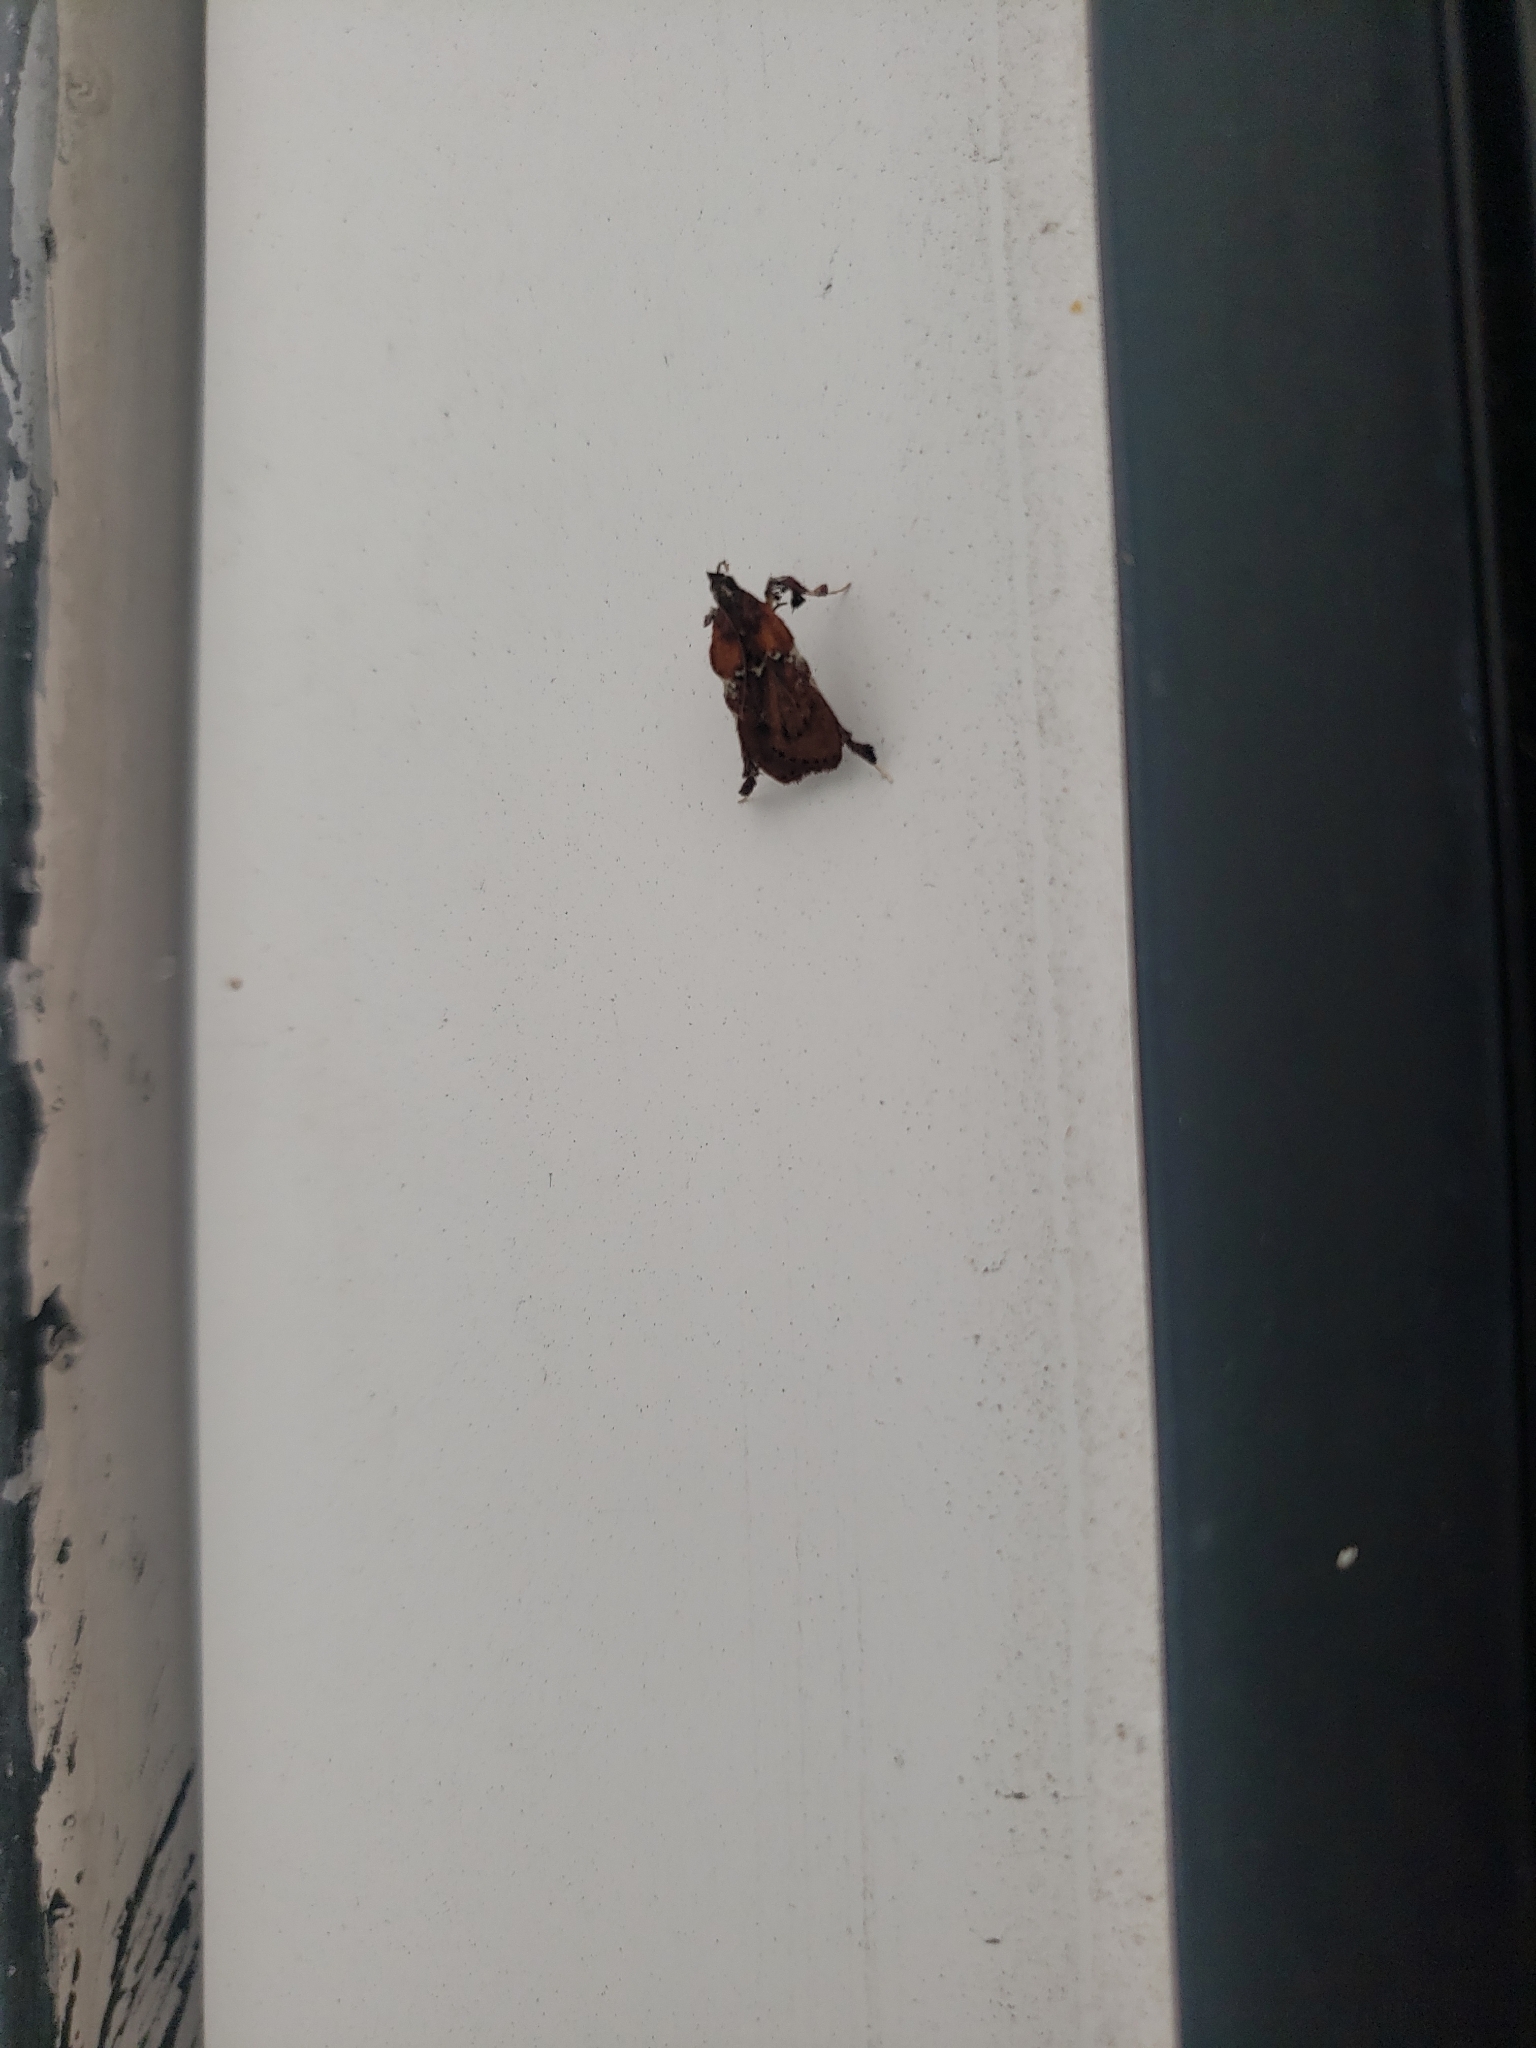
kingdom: Animalia
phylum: Arthropoda
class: Insecta
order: Lepidoptera
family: Pyralidae
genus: Galasa
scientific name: Galasa nigrinodis
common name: Boxwood leaftier moth
